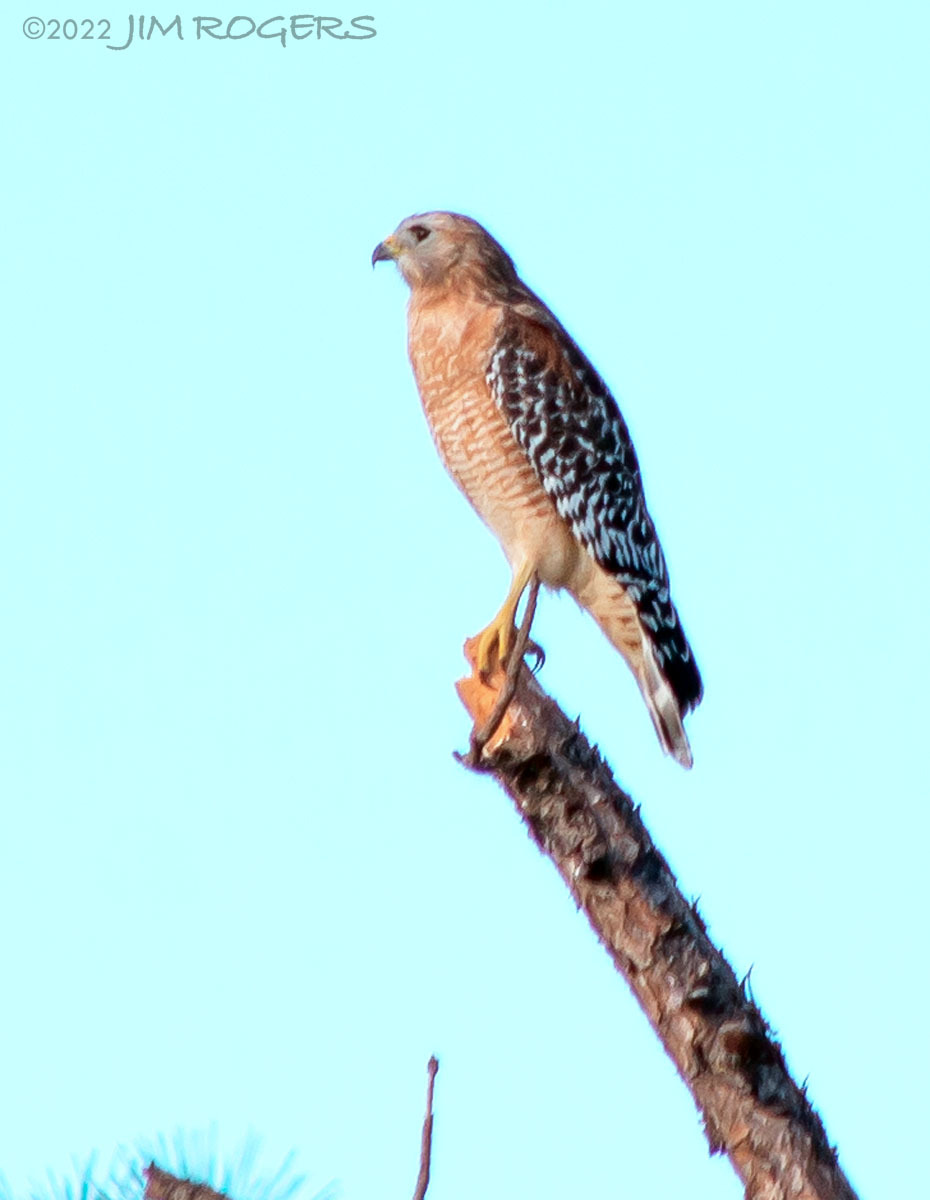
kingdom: Animalia
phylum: Chordata
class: Aves
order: Accipitriformes
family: Accipitridae
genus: Buteo
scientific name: Buteo lineatus
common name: Red-shouldered hawk
